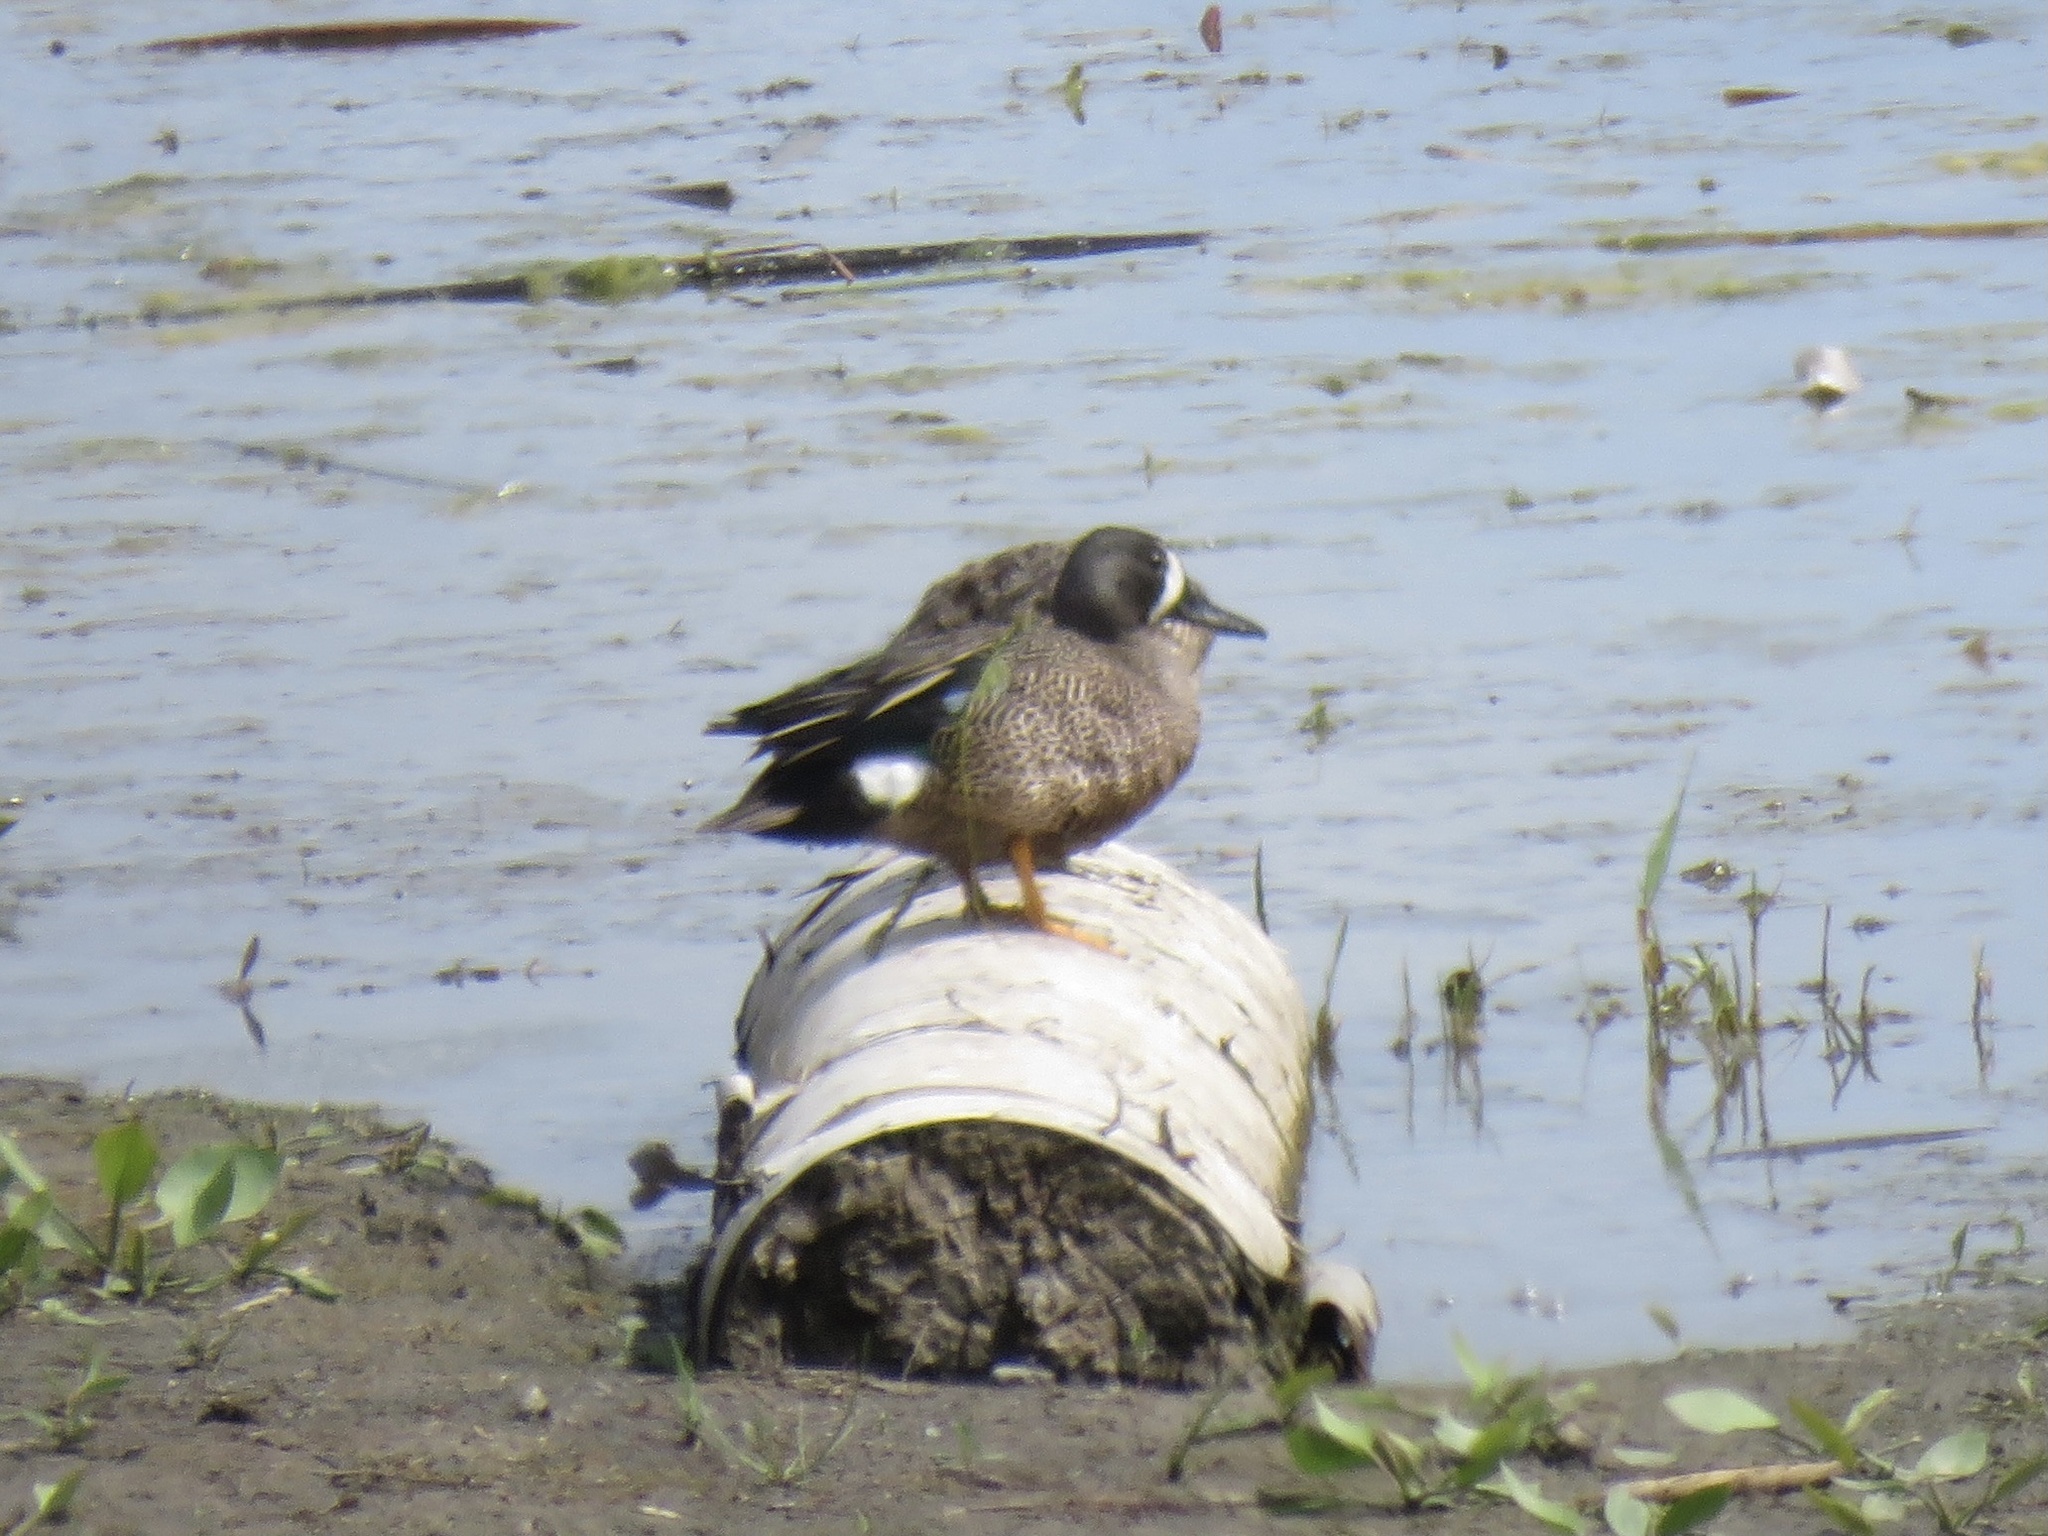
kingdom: Animalia
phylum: Chordata
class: Aves
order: Anseriformes
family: Anatidae
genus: Spatula
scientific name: Spatula discors
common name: Blue-winged teal
